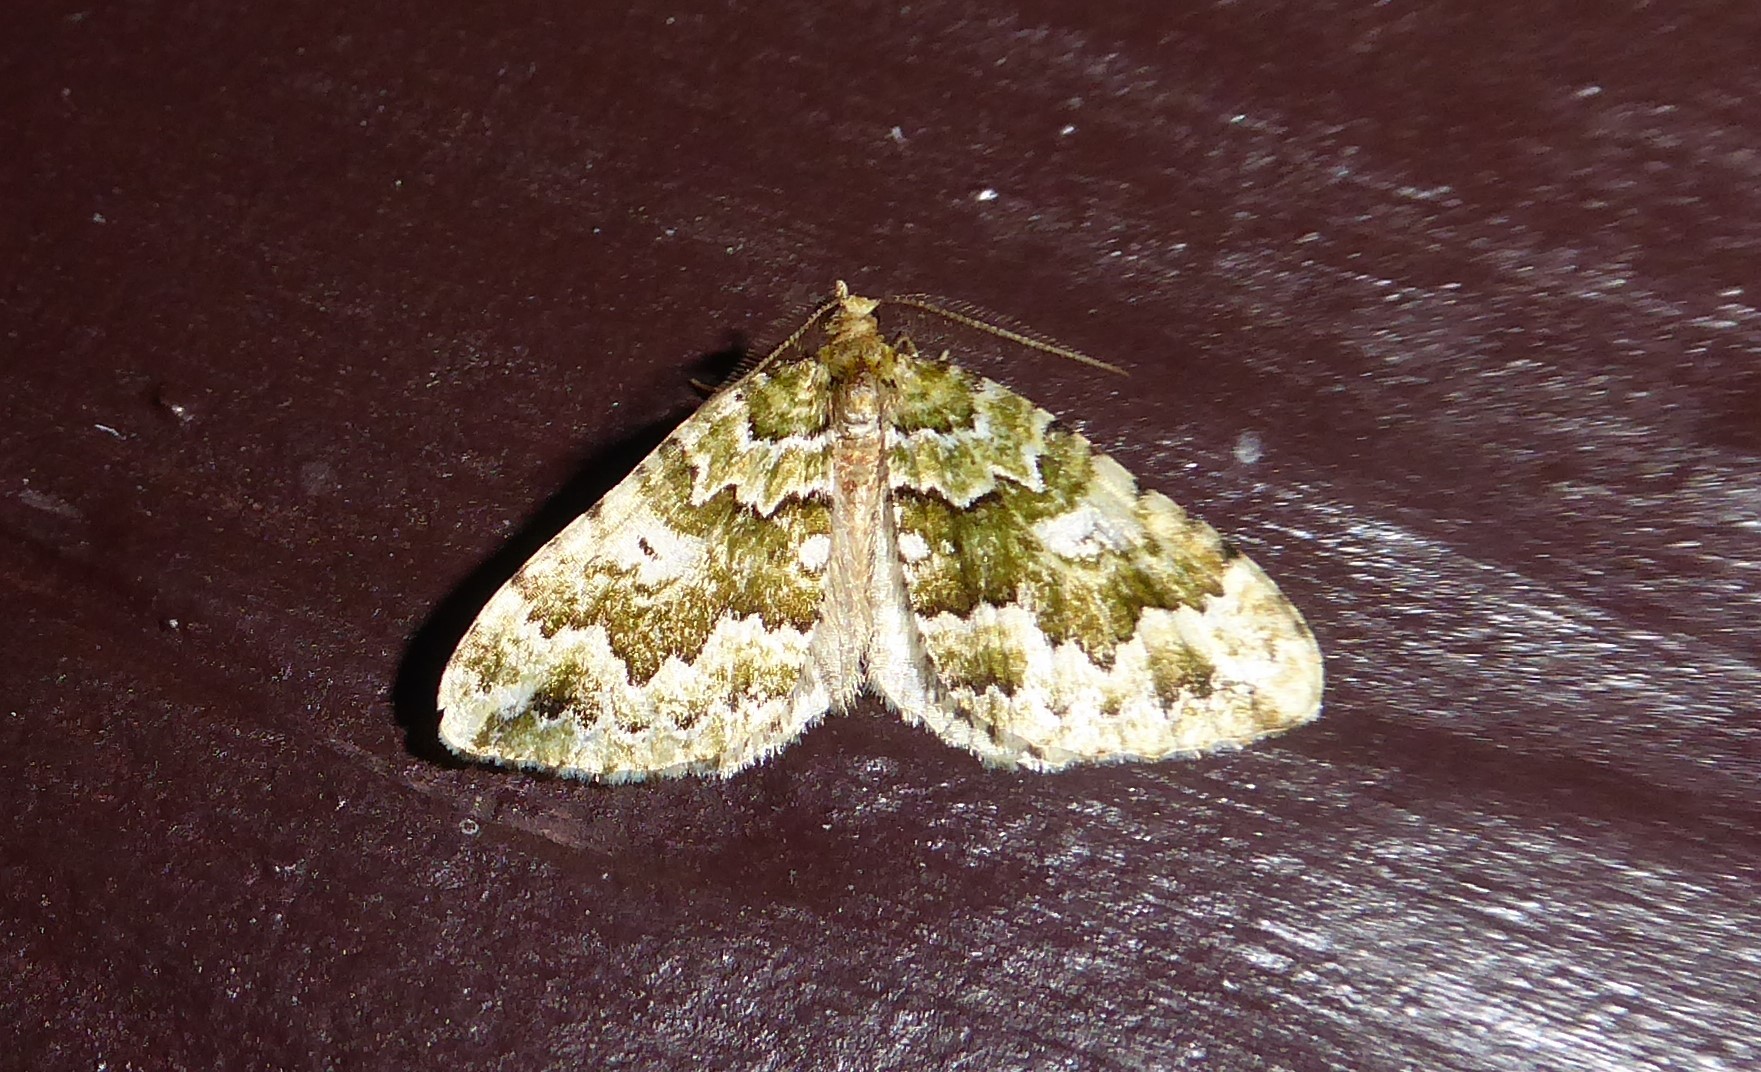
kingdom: Animalia
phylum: Arthropoda
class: Insecta
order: Lepidoptera
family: Geometridae
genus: Asaphodes
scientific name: Asaphodes beata
